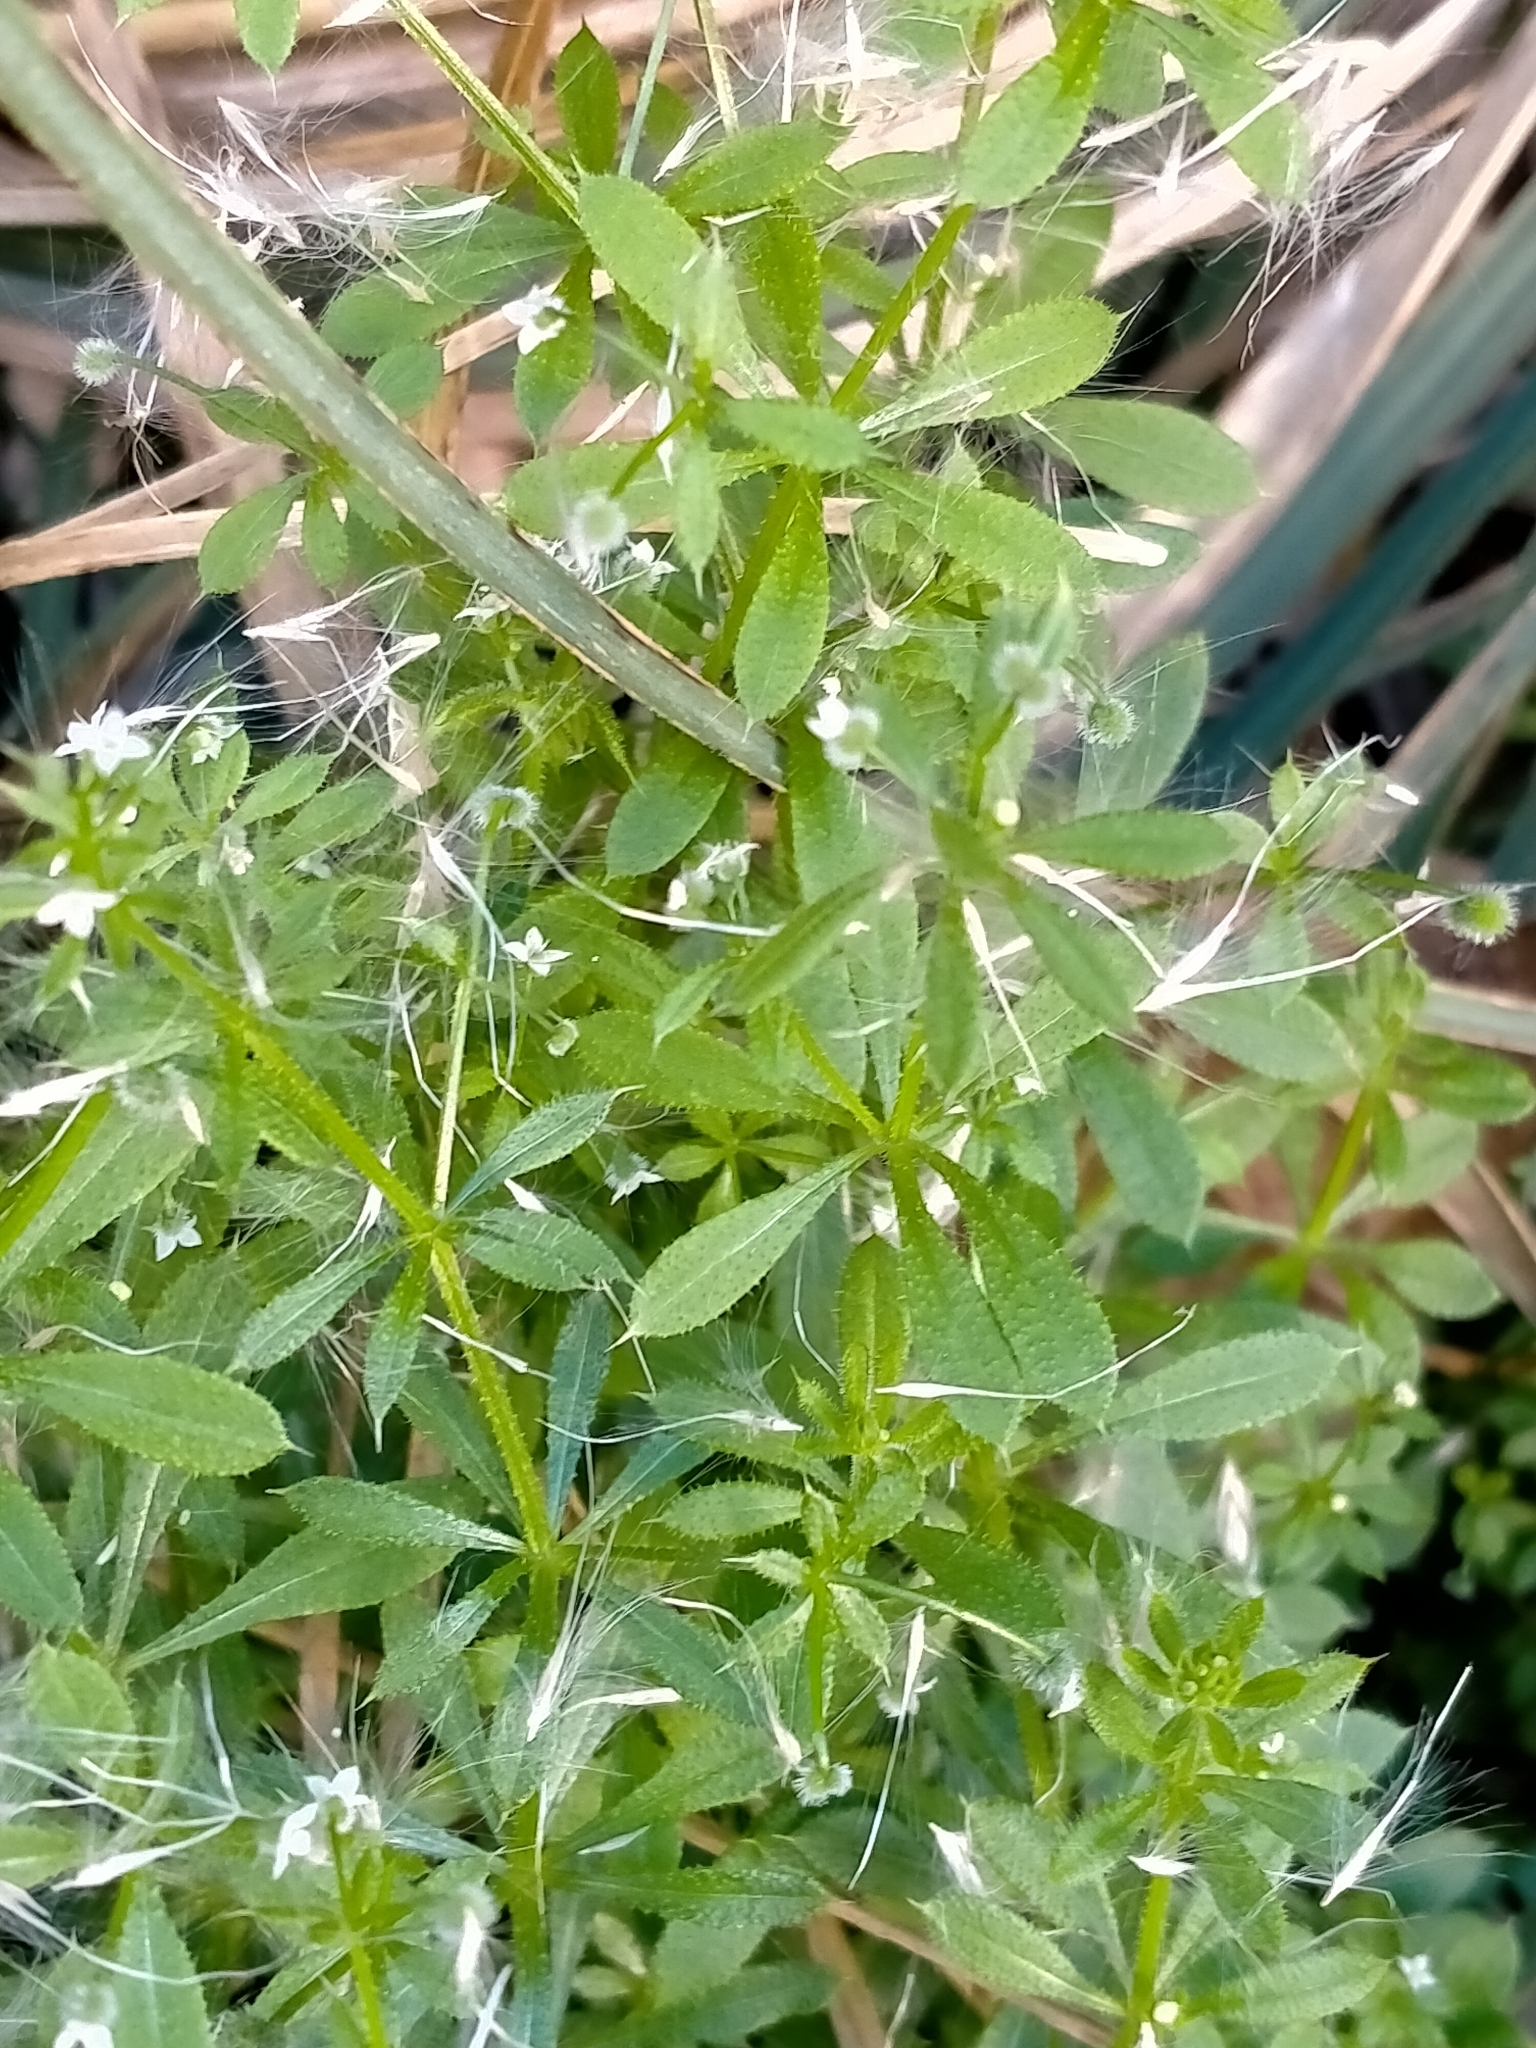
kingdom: Plantae
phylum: Tracheophyta
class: Magnoliopsida
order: Gentianales
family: Rubiaceae
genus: Galium
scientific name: Galium aparine
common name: Cleavers
